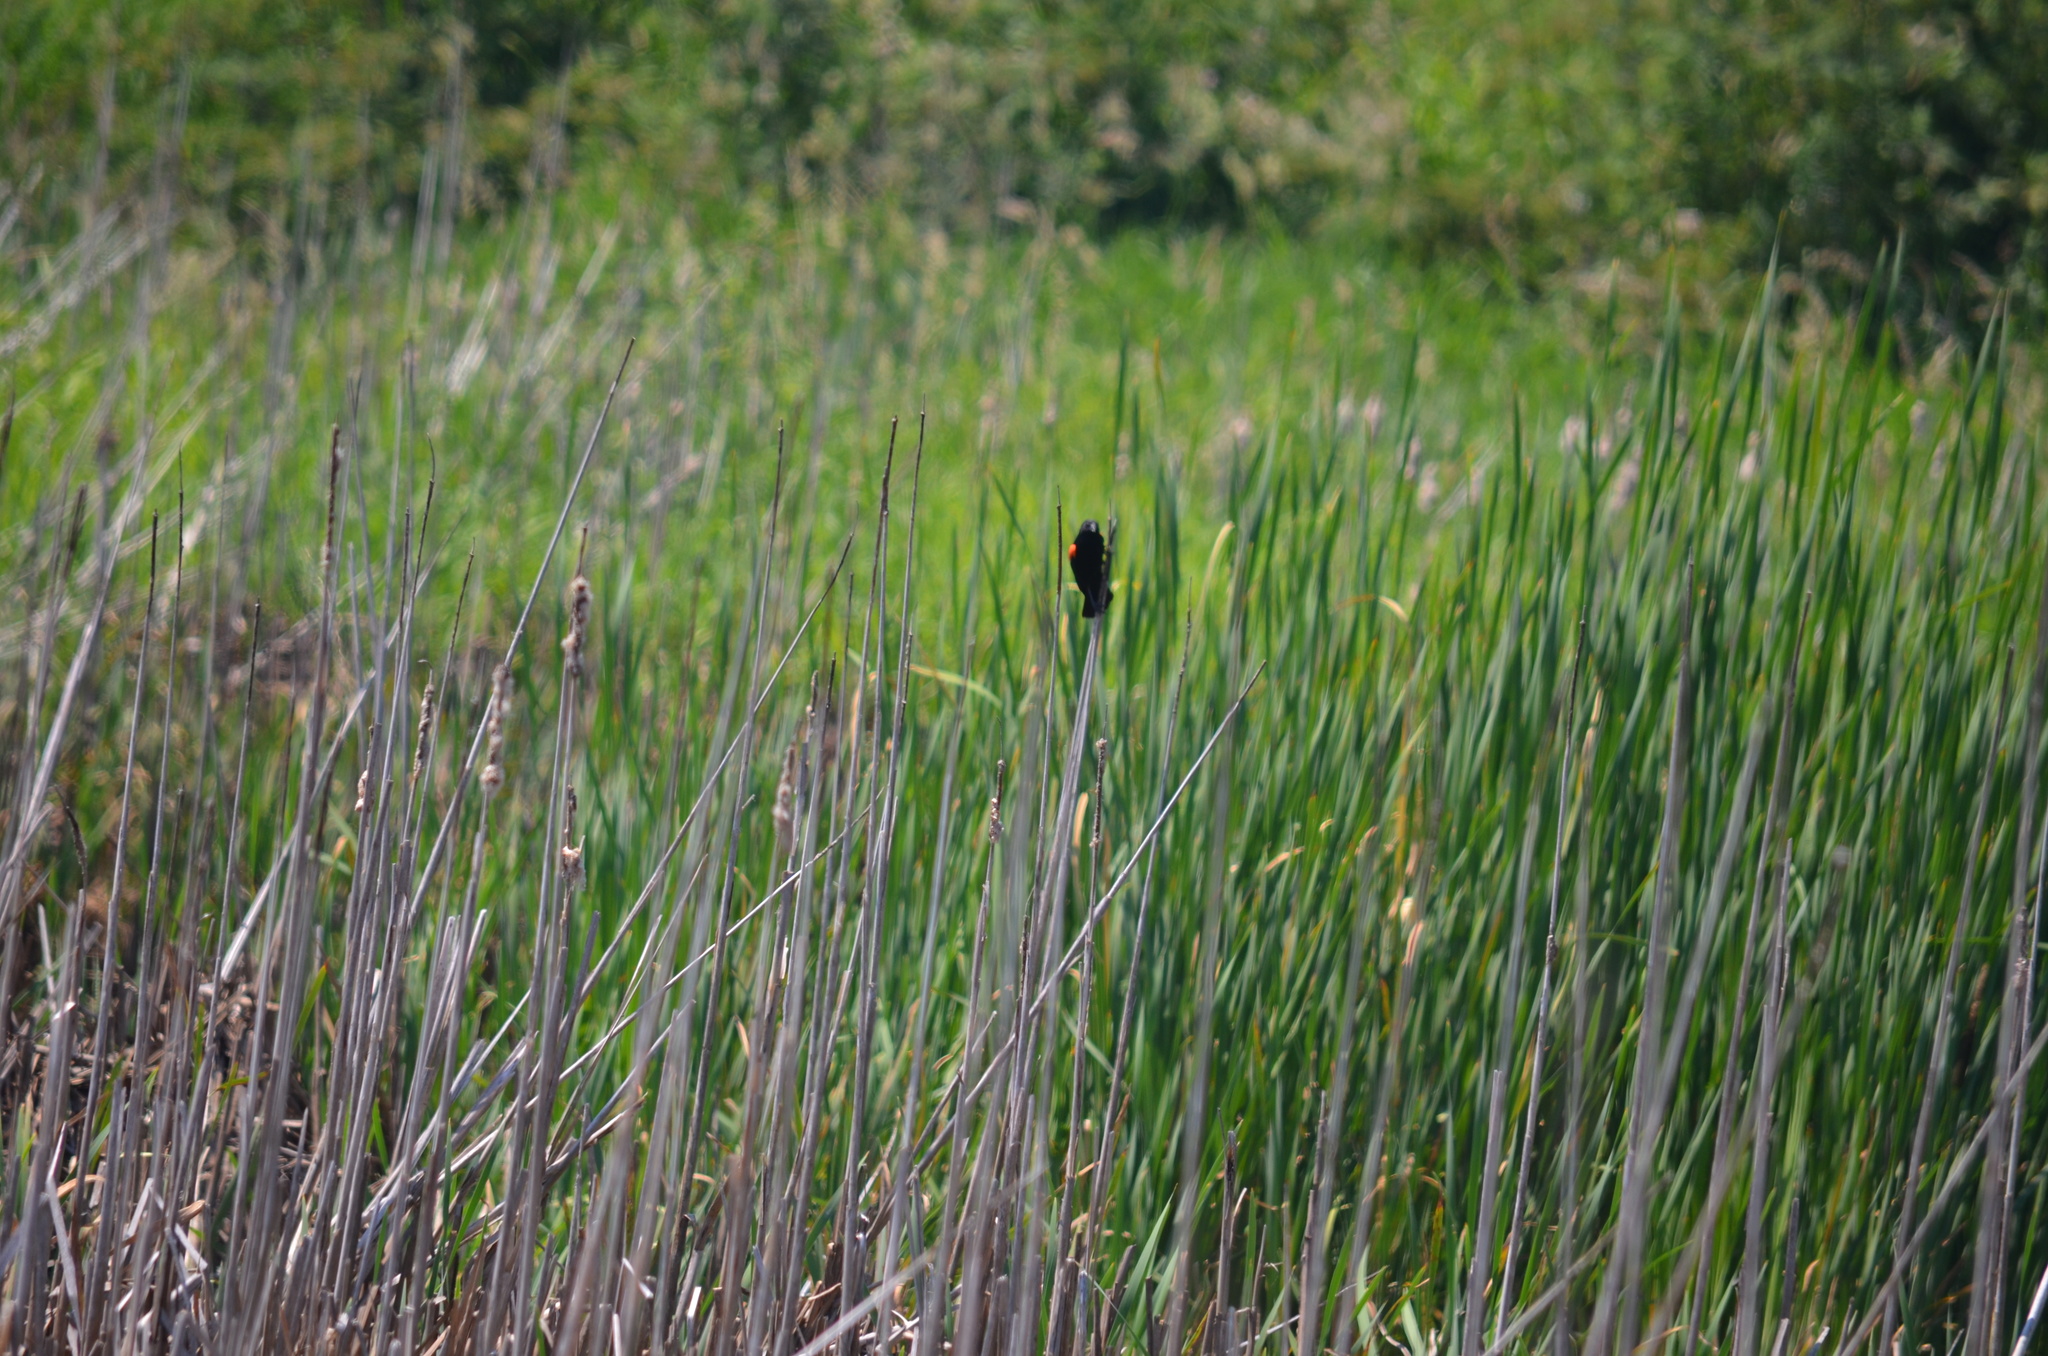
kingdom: Animalia
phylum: Chordata
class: Aves
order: Passeriformes
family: Icteridae
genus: Agelaius
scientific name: Agelaius phoeniceus
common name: Red-winged blackbird
